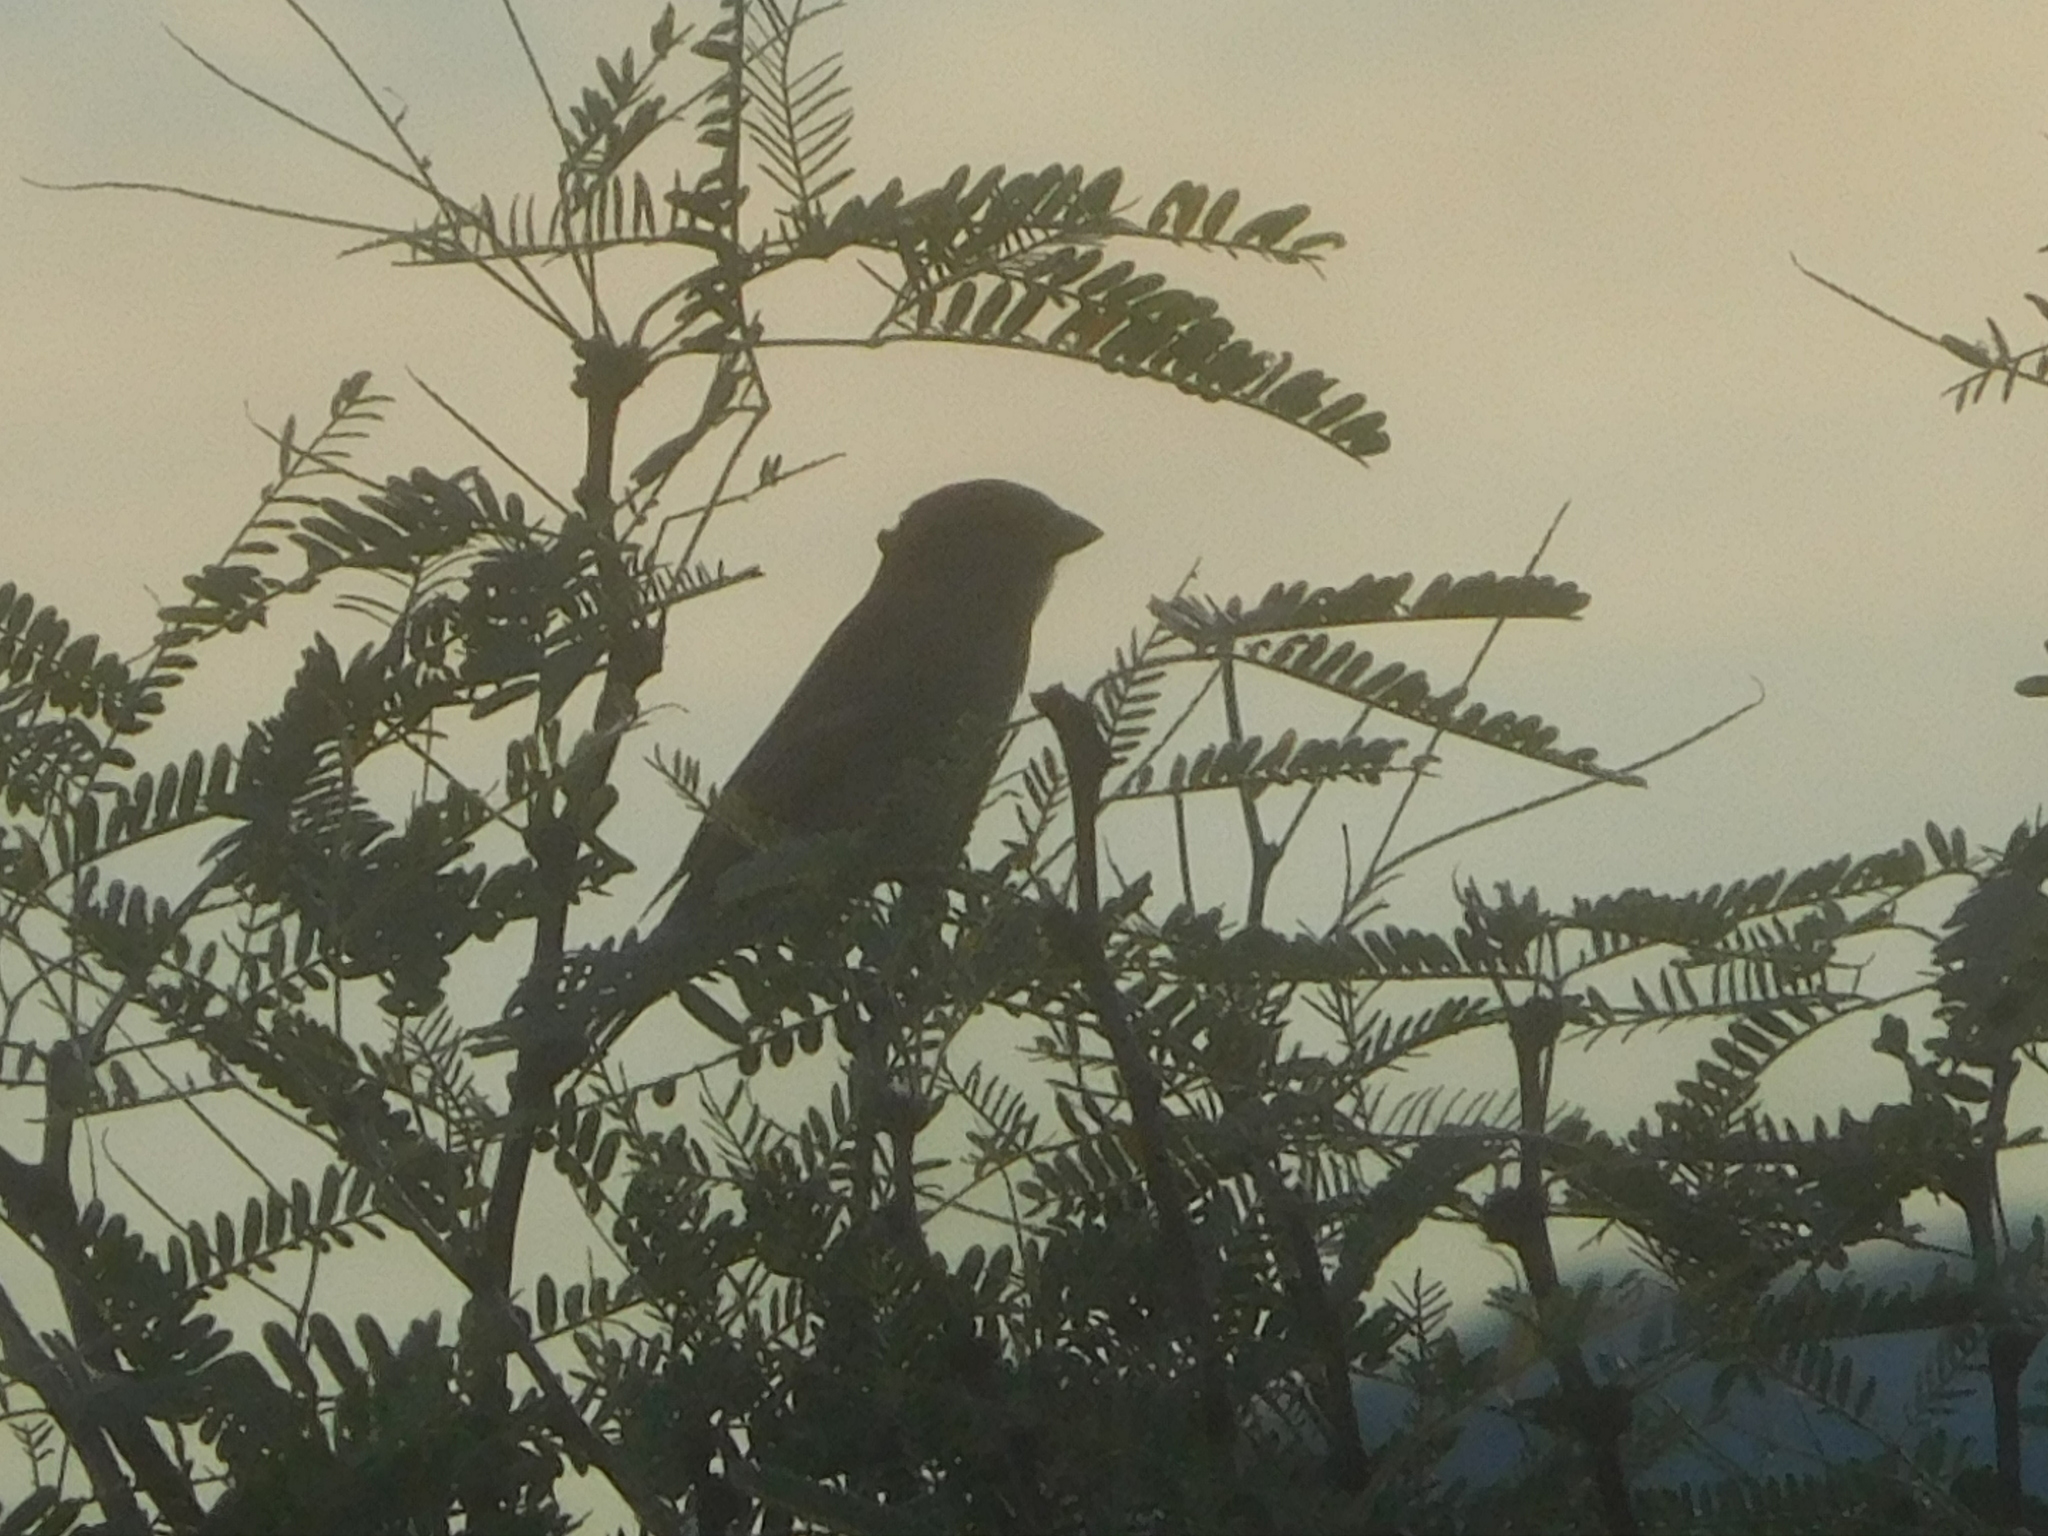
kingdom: Animalia
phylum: Chordata
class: Aves
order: Passeriformes
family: Passeridae
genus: Passer
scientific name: Passer domesticus
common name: House sparrow
